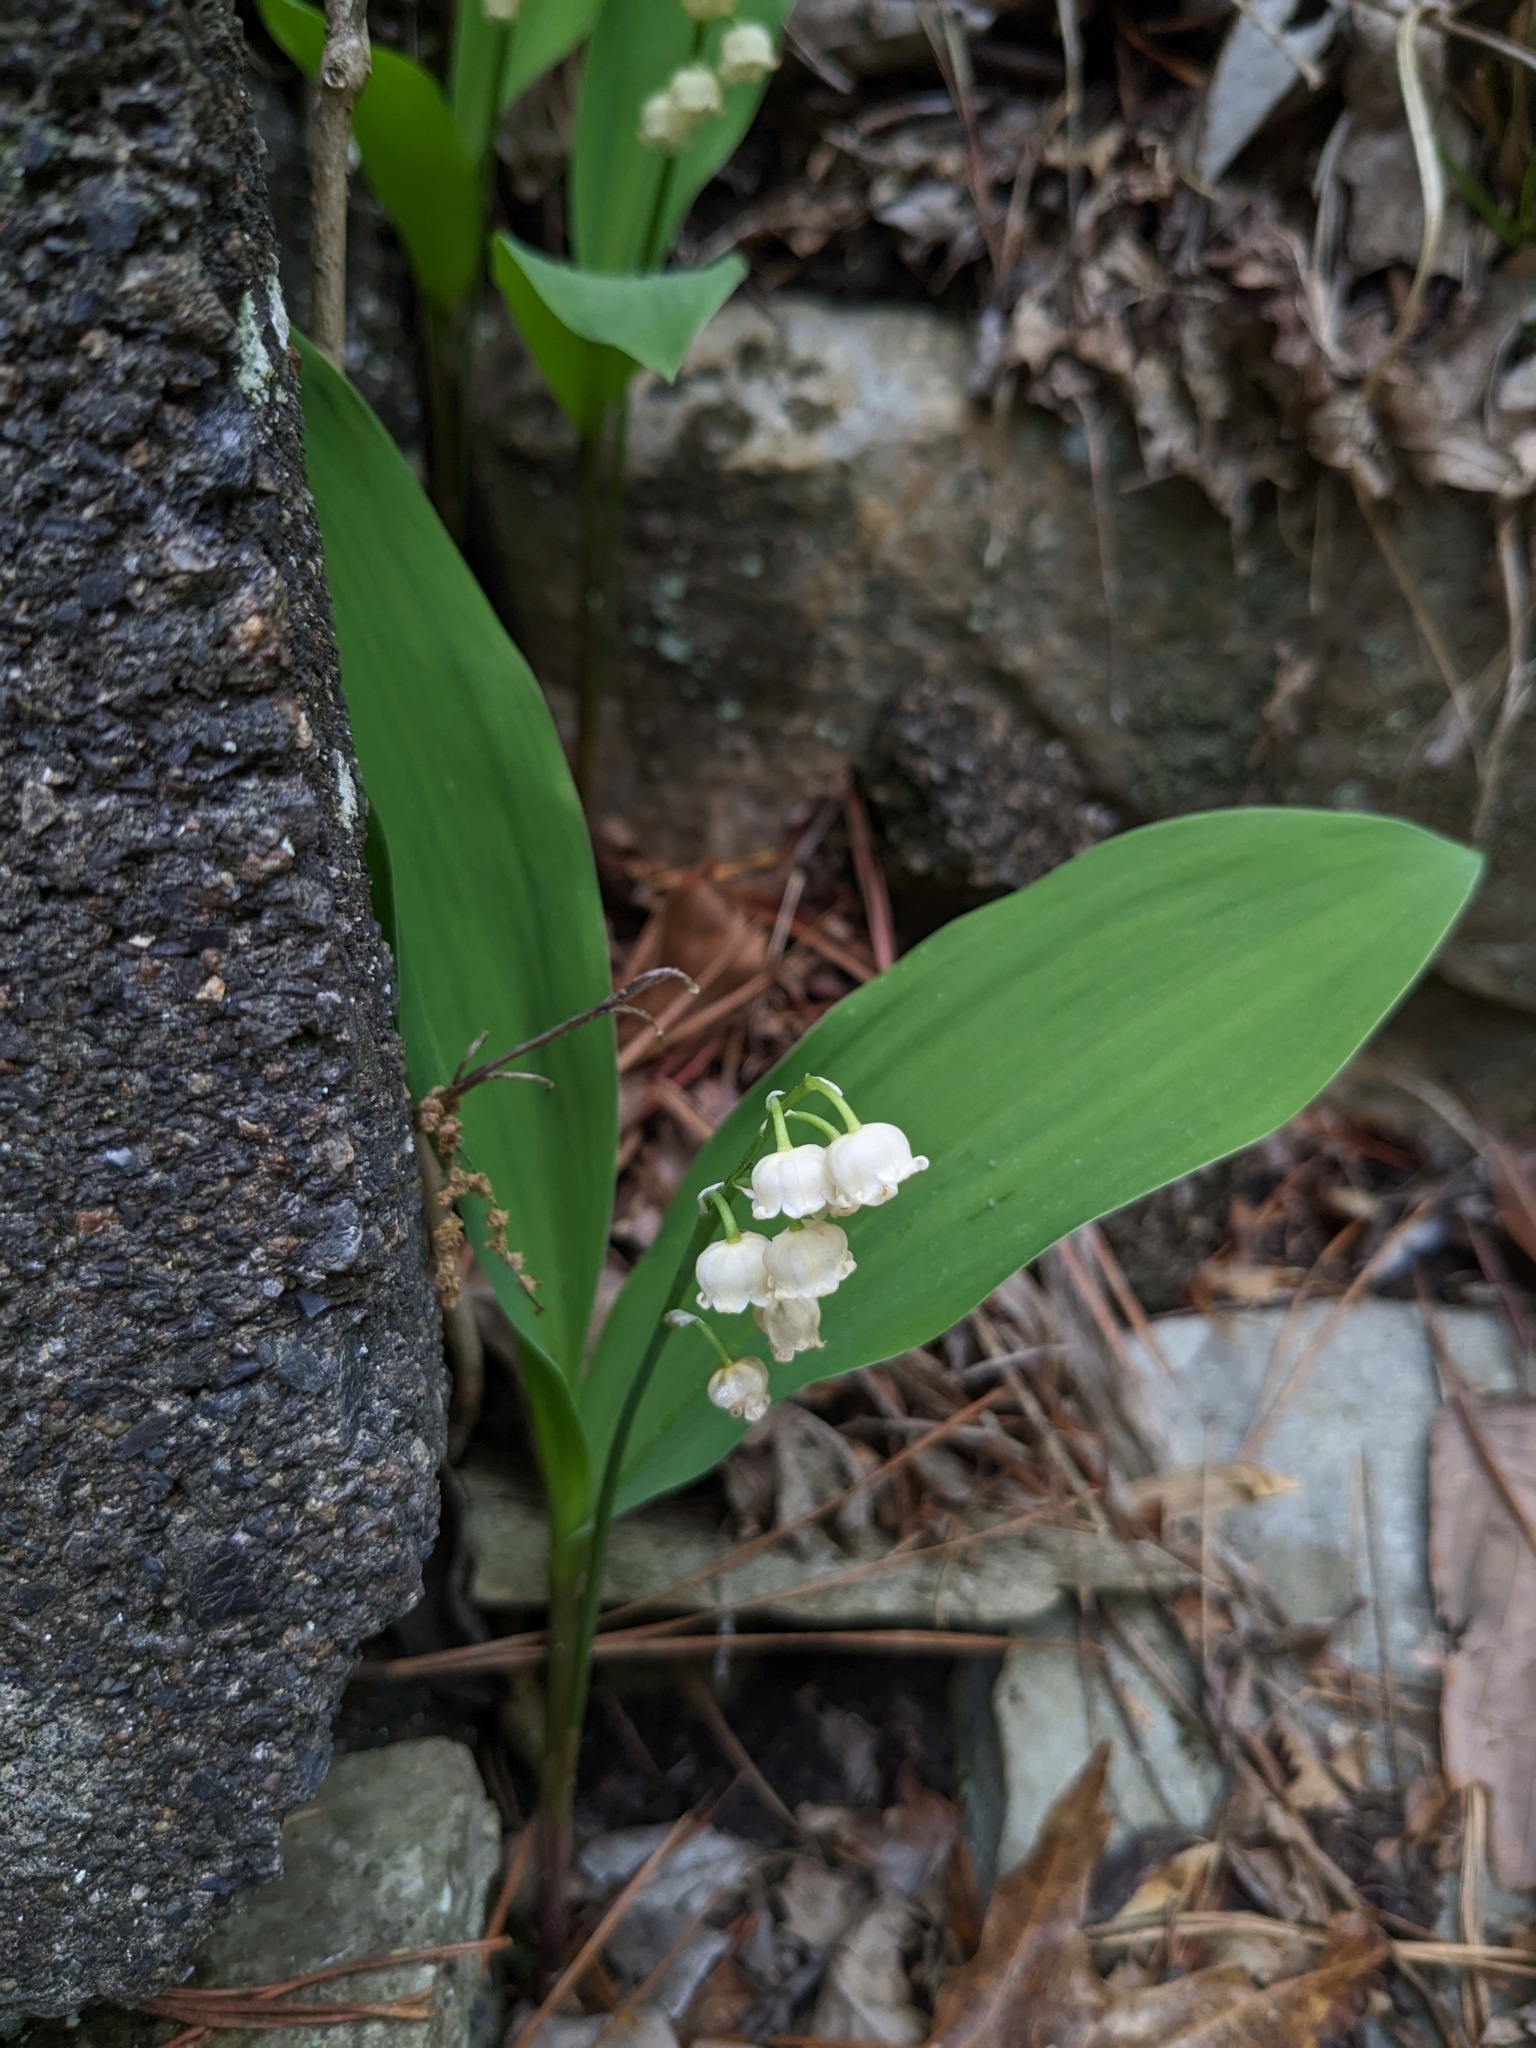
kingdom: Plantae
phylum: Tracheophyta
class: Liliopsida
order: Asparagales
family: Asparagaceae
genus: Convallaria
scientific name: Convallaria majalis
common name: Lily-of-the-valley
